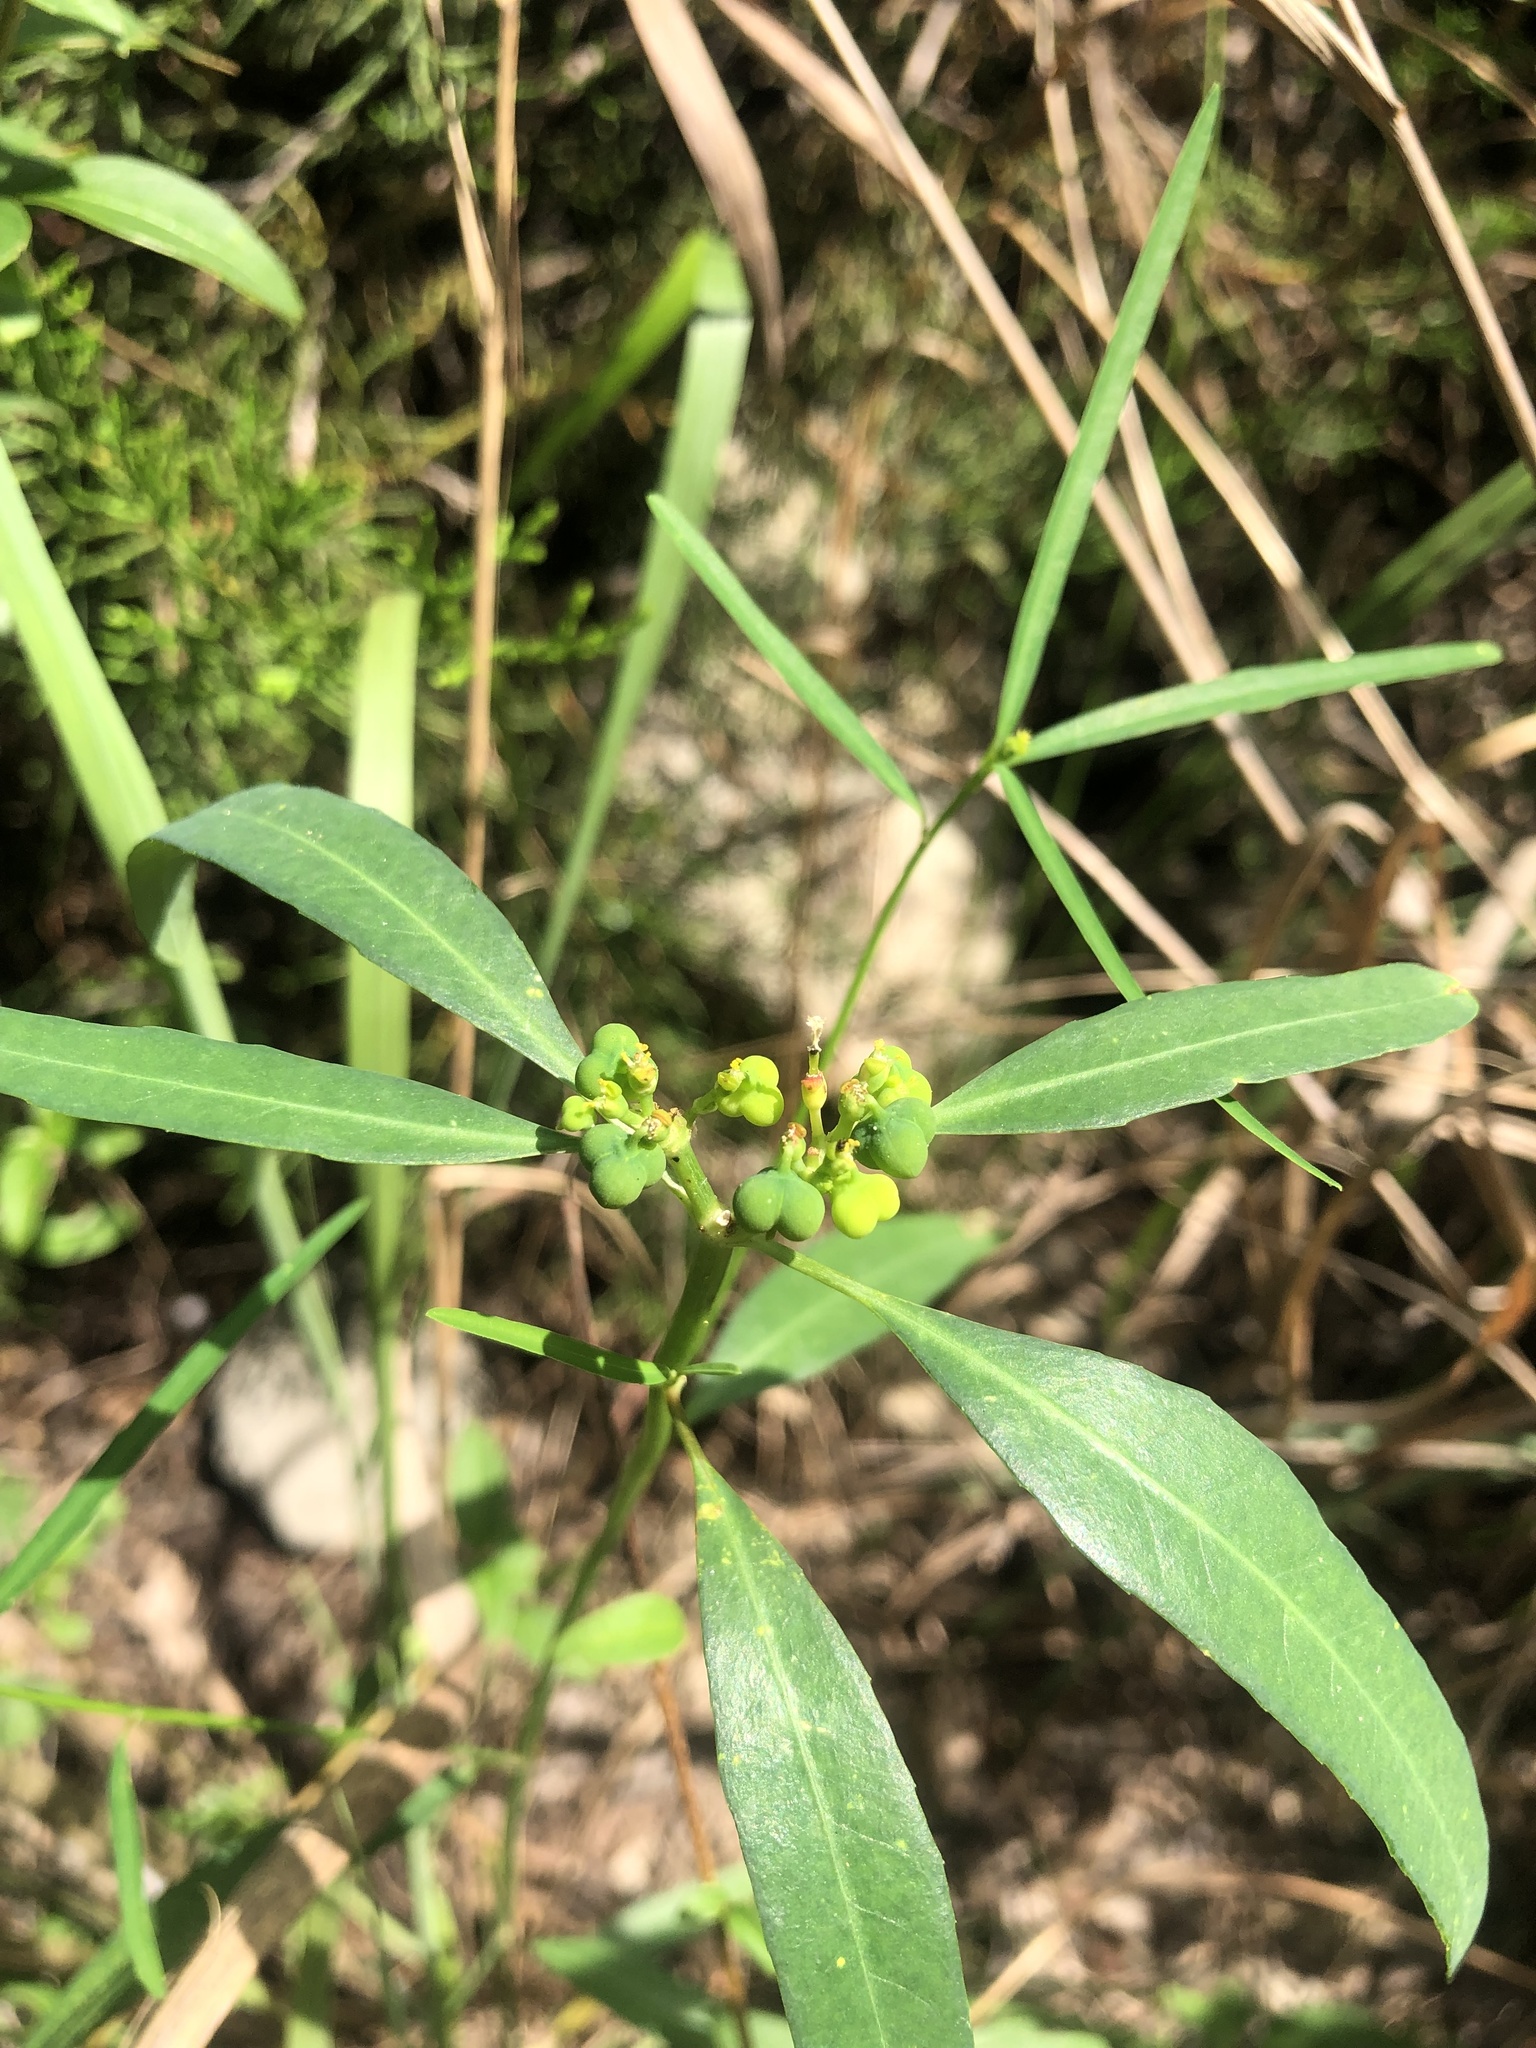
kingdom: Plantae
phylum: Tracheophyta
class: Magnoliopsida
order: Malpighiales
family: Euphorbiaceae
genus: Euphorbia
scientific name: Euphorbia heterophylla
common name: Mexican fireplant
